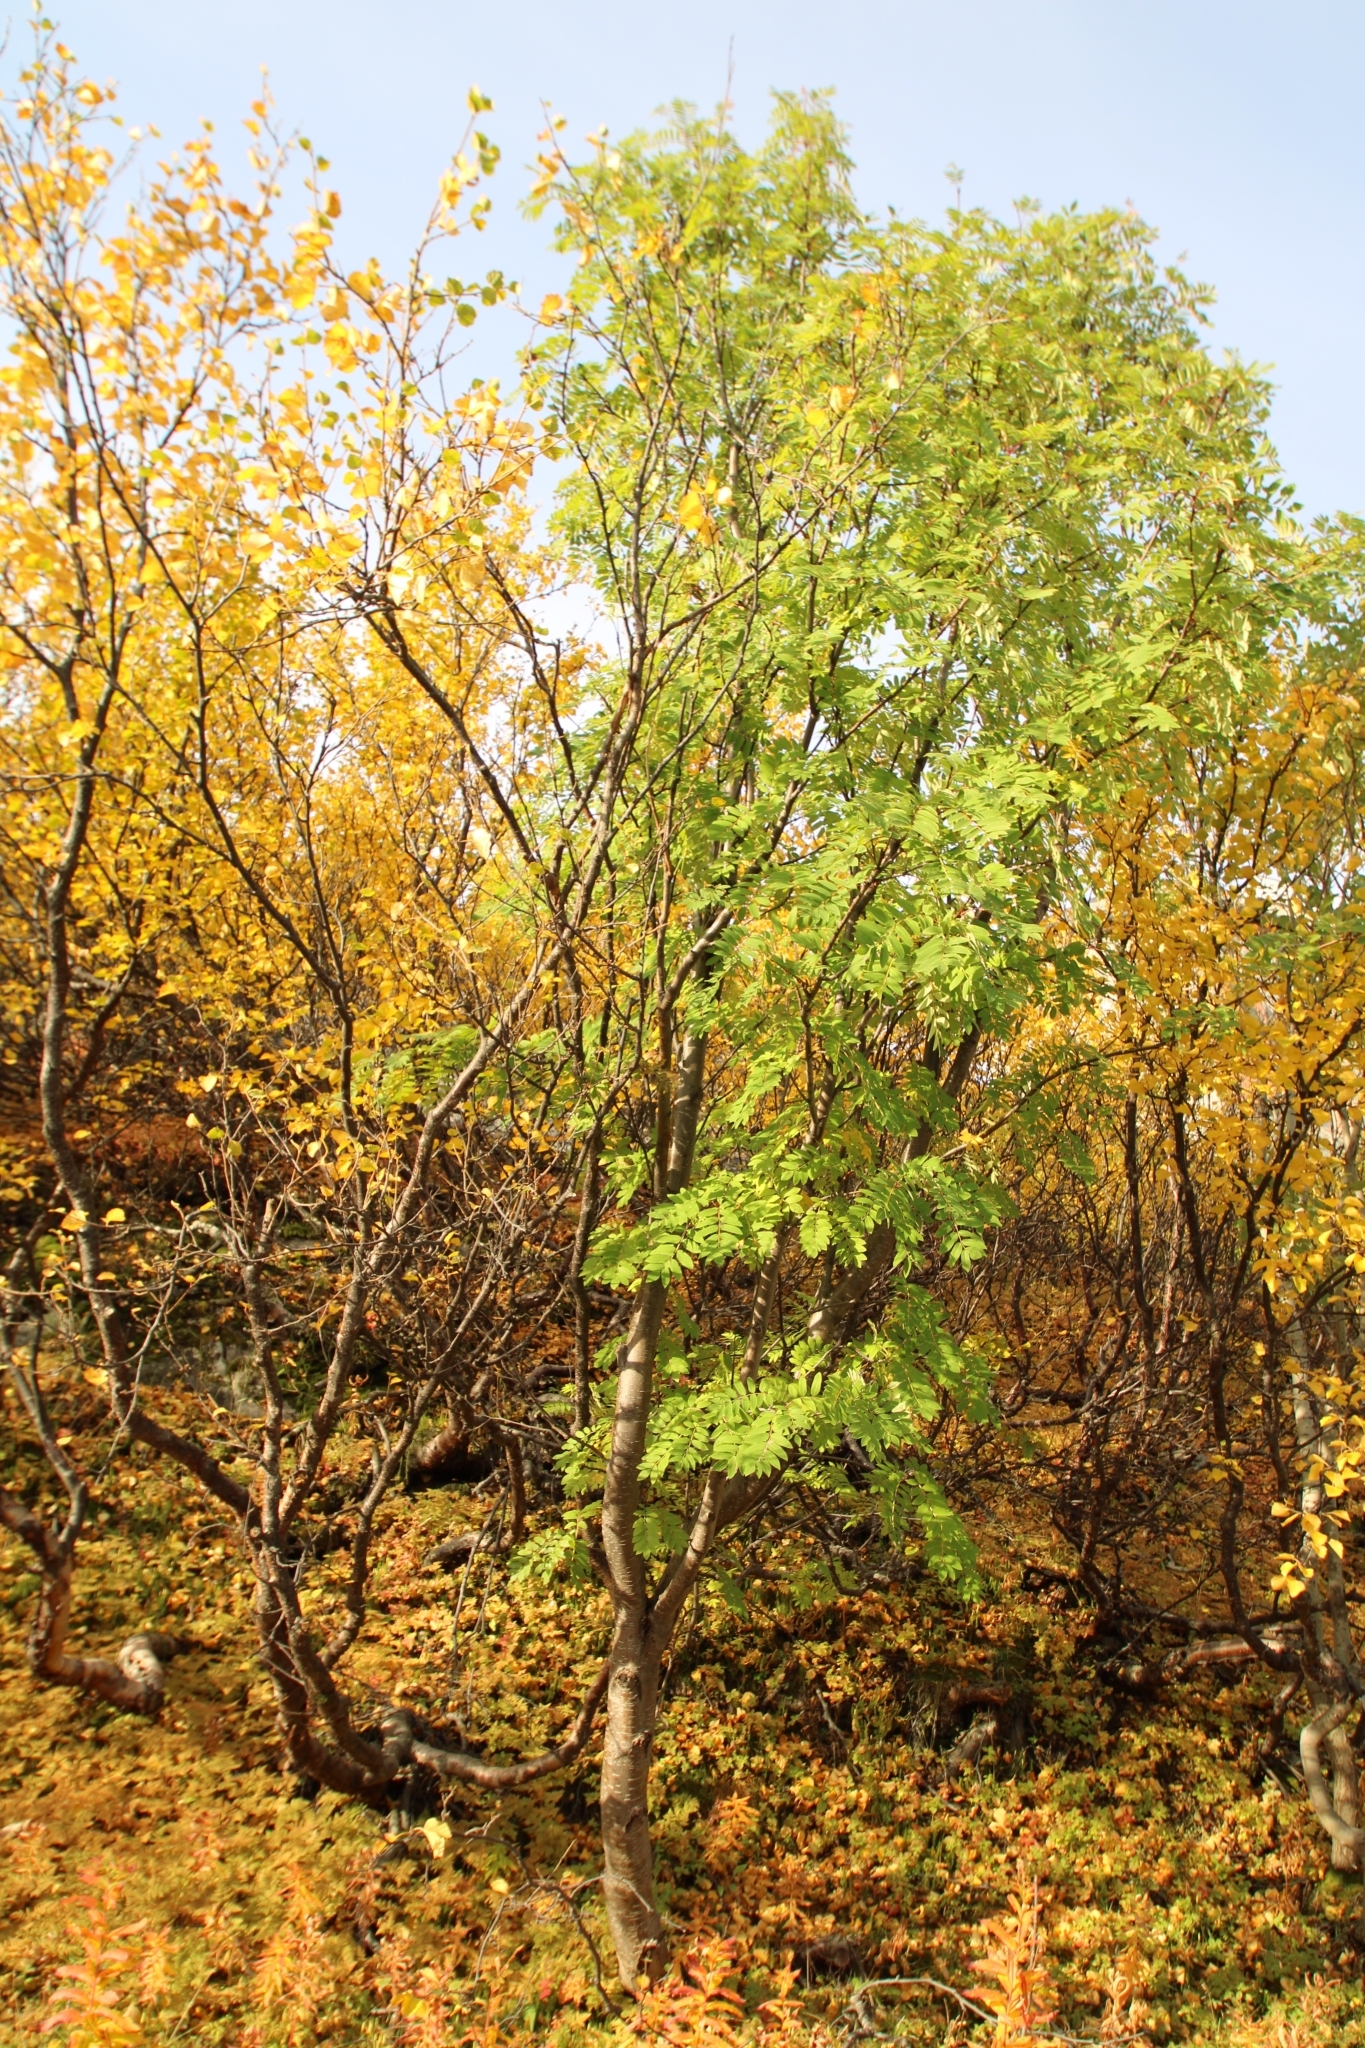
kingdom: Plantae
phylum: Tracheophyta
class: Magnoliopsida
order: Rosales
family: Rosaceae
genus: Sorbus
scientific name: Sorbus aucuparia
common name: Rowan
